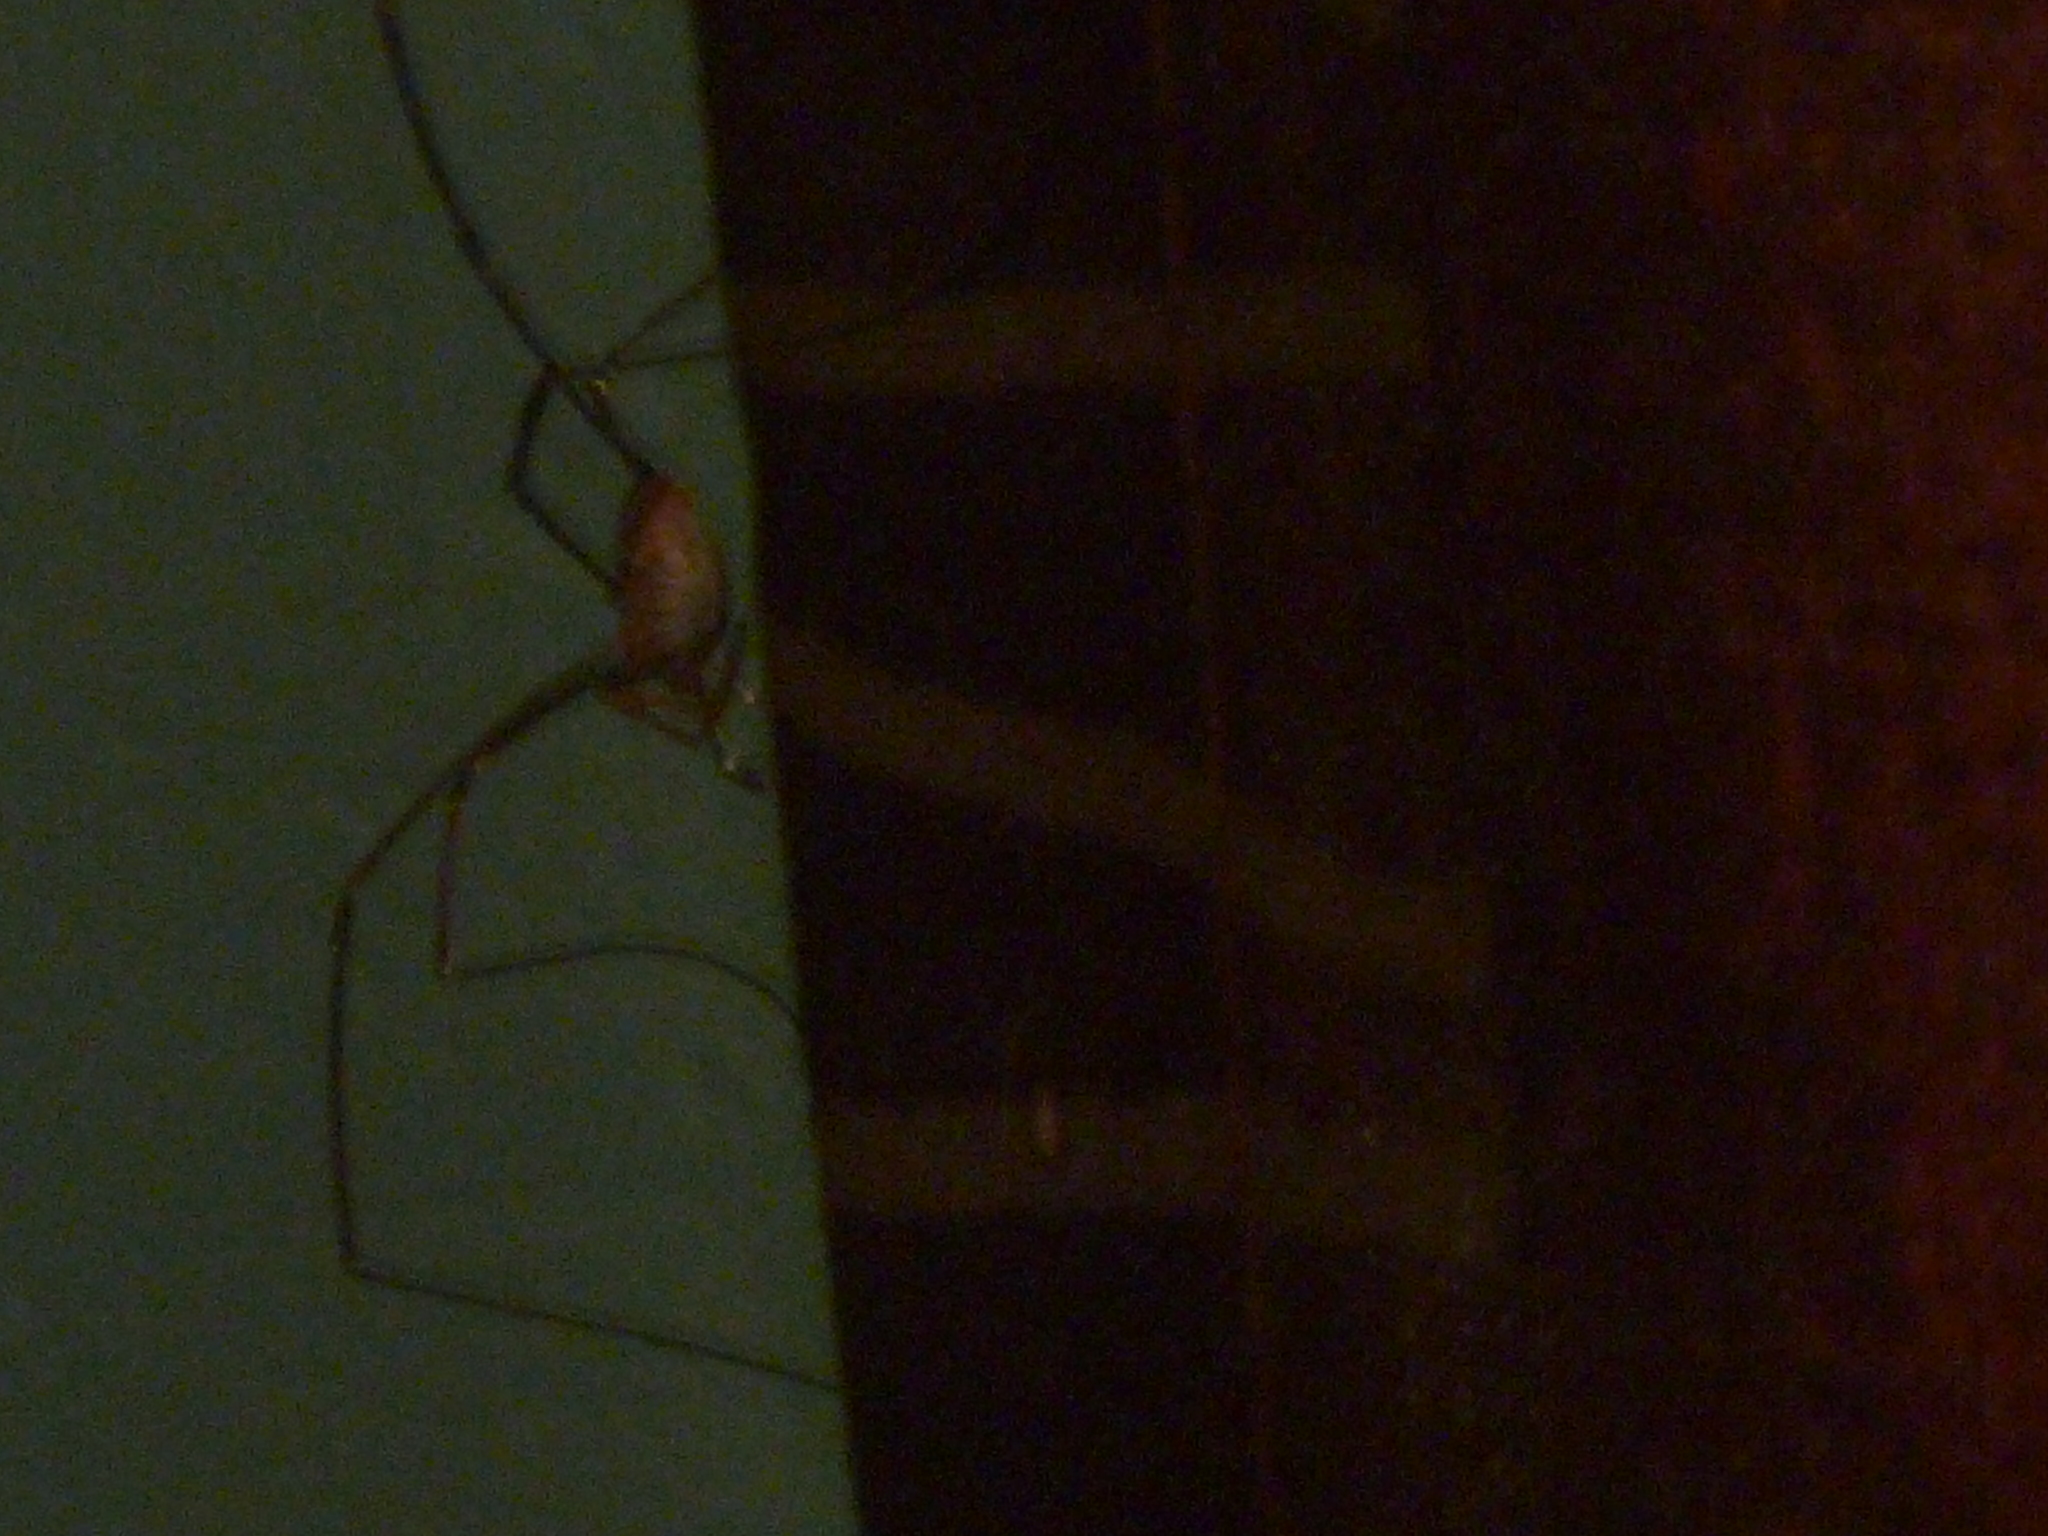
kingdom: Animalia
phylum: Arthropoda
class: Arachnida
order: Opiliones
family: Phalangiidae
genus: Phalangium
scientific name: Phalangium opilio
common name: Daddy longleg
